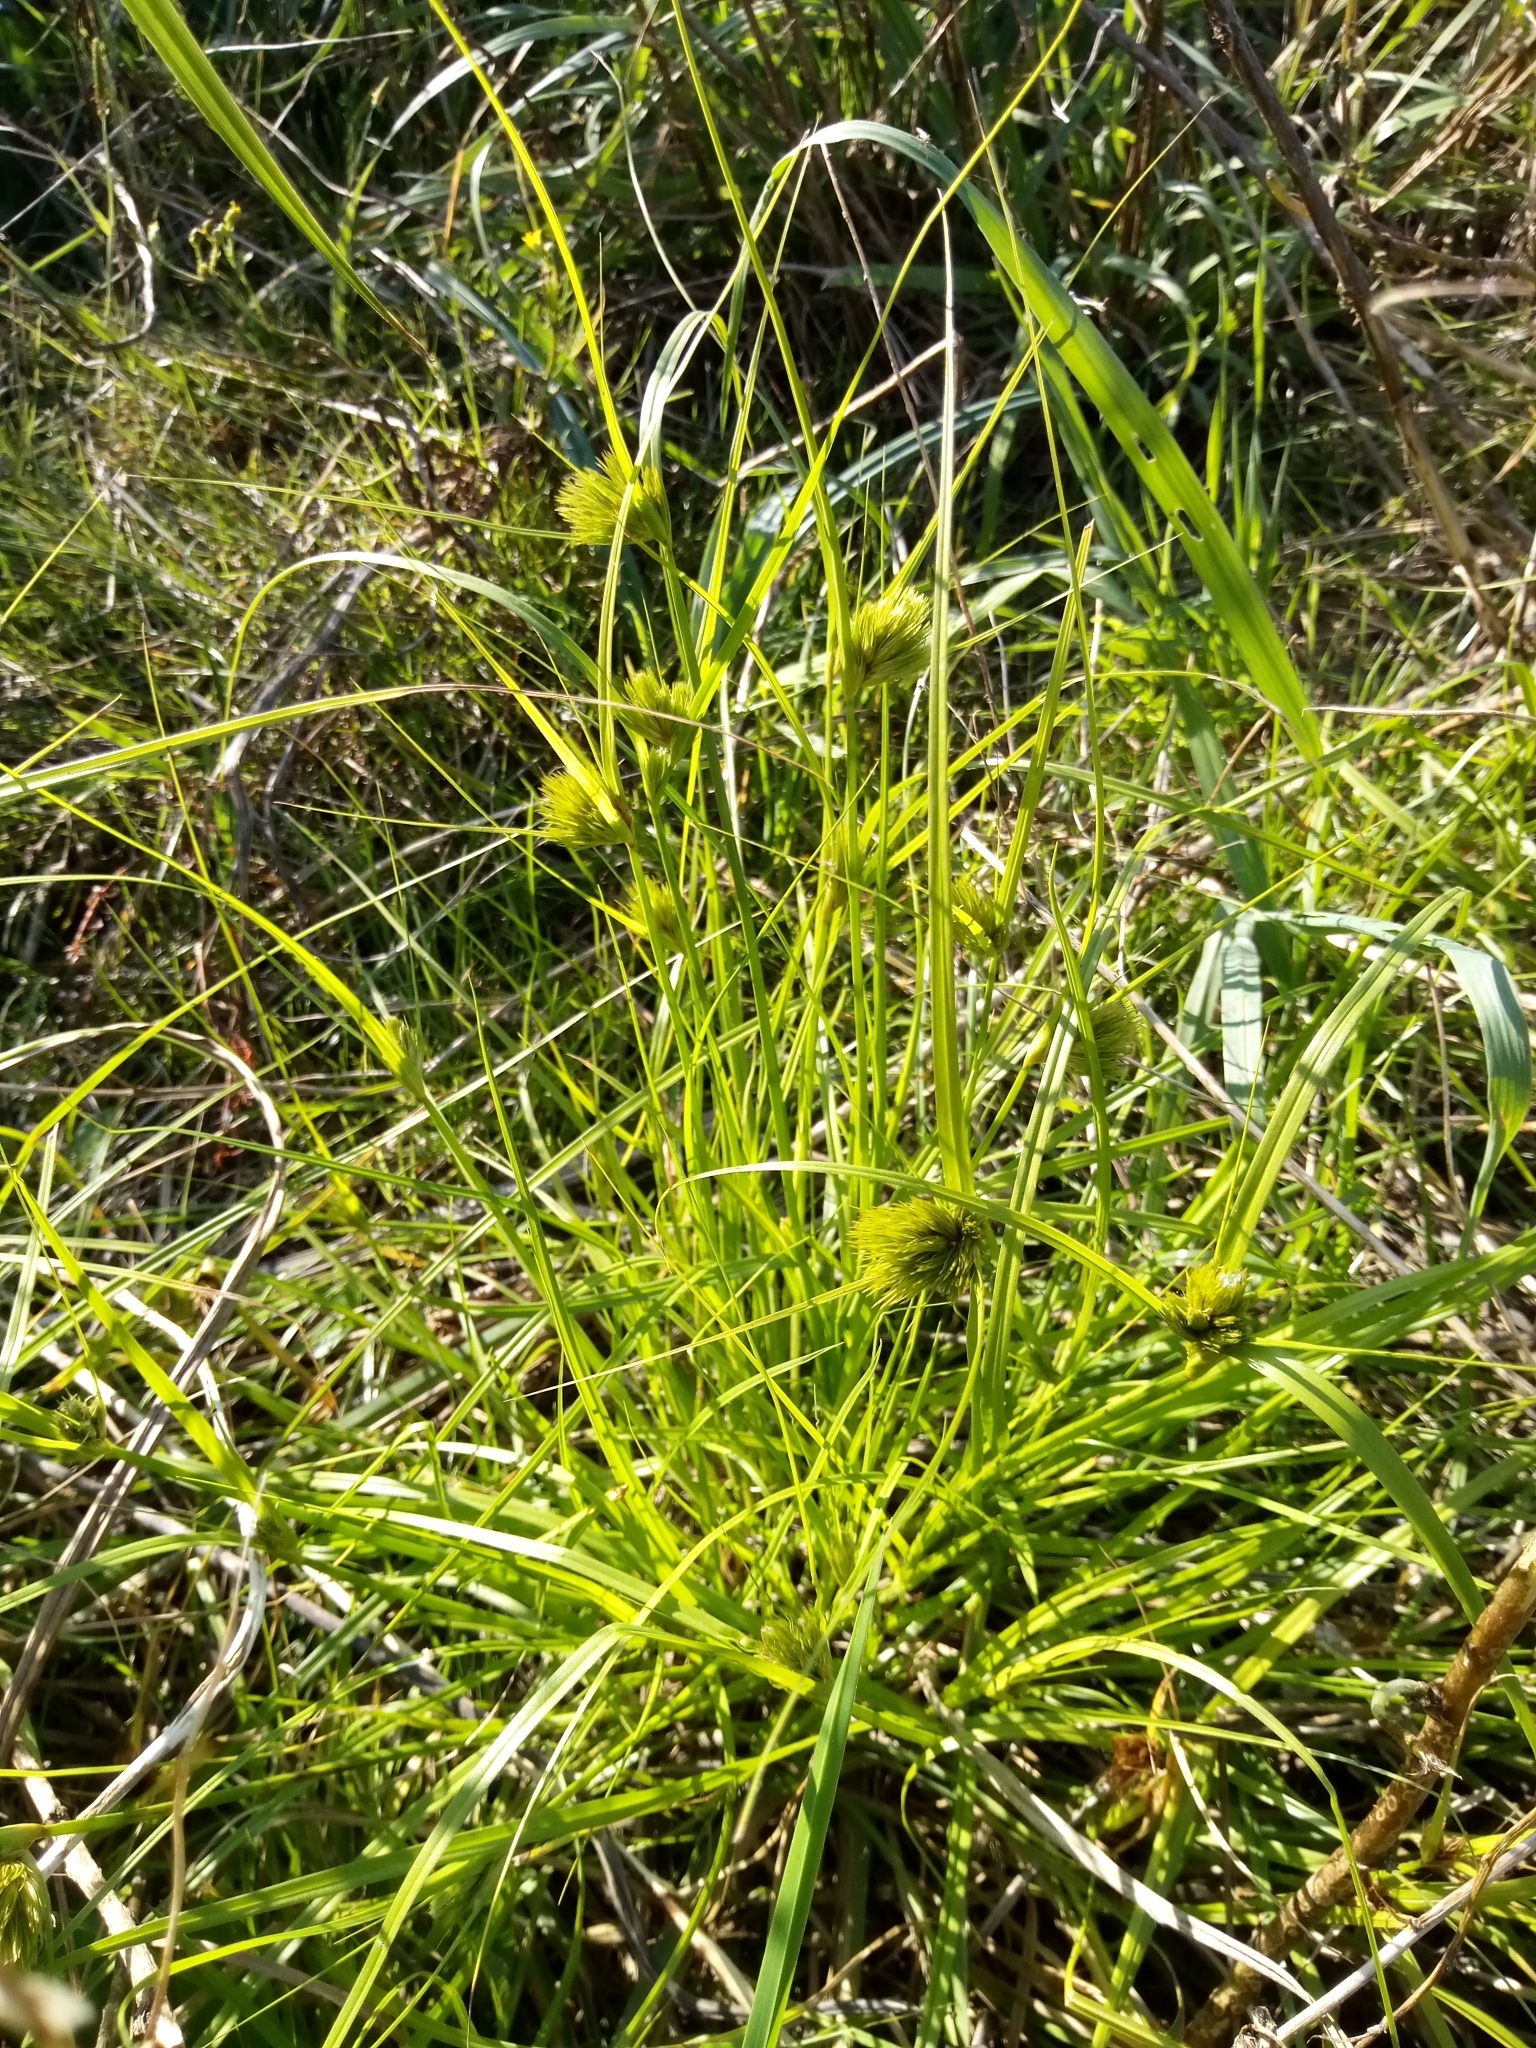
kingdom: Plantae
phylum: Tracheophyta
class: Liliopsida
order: Poales
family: Cyperaceae
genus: Carex
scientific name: Carex bohemica
